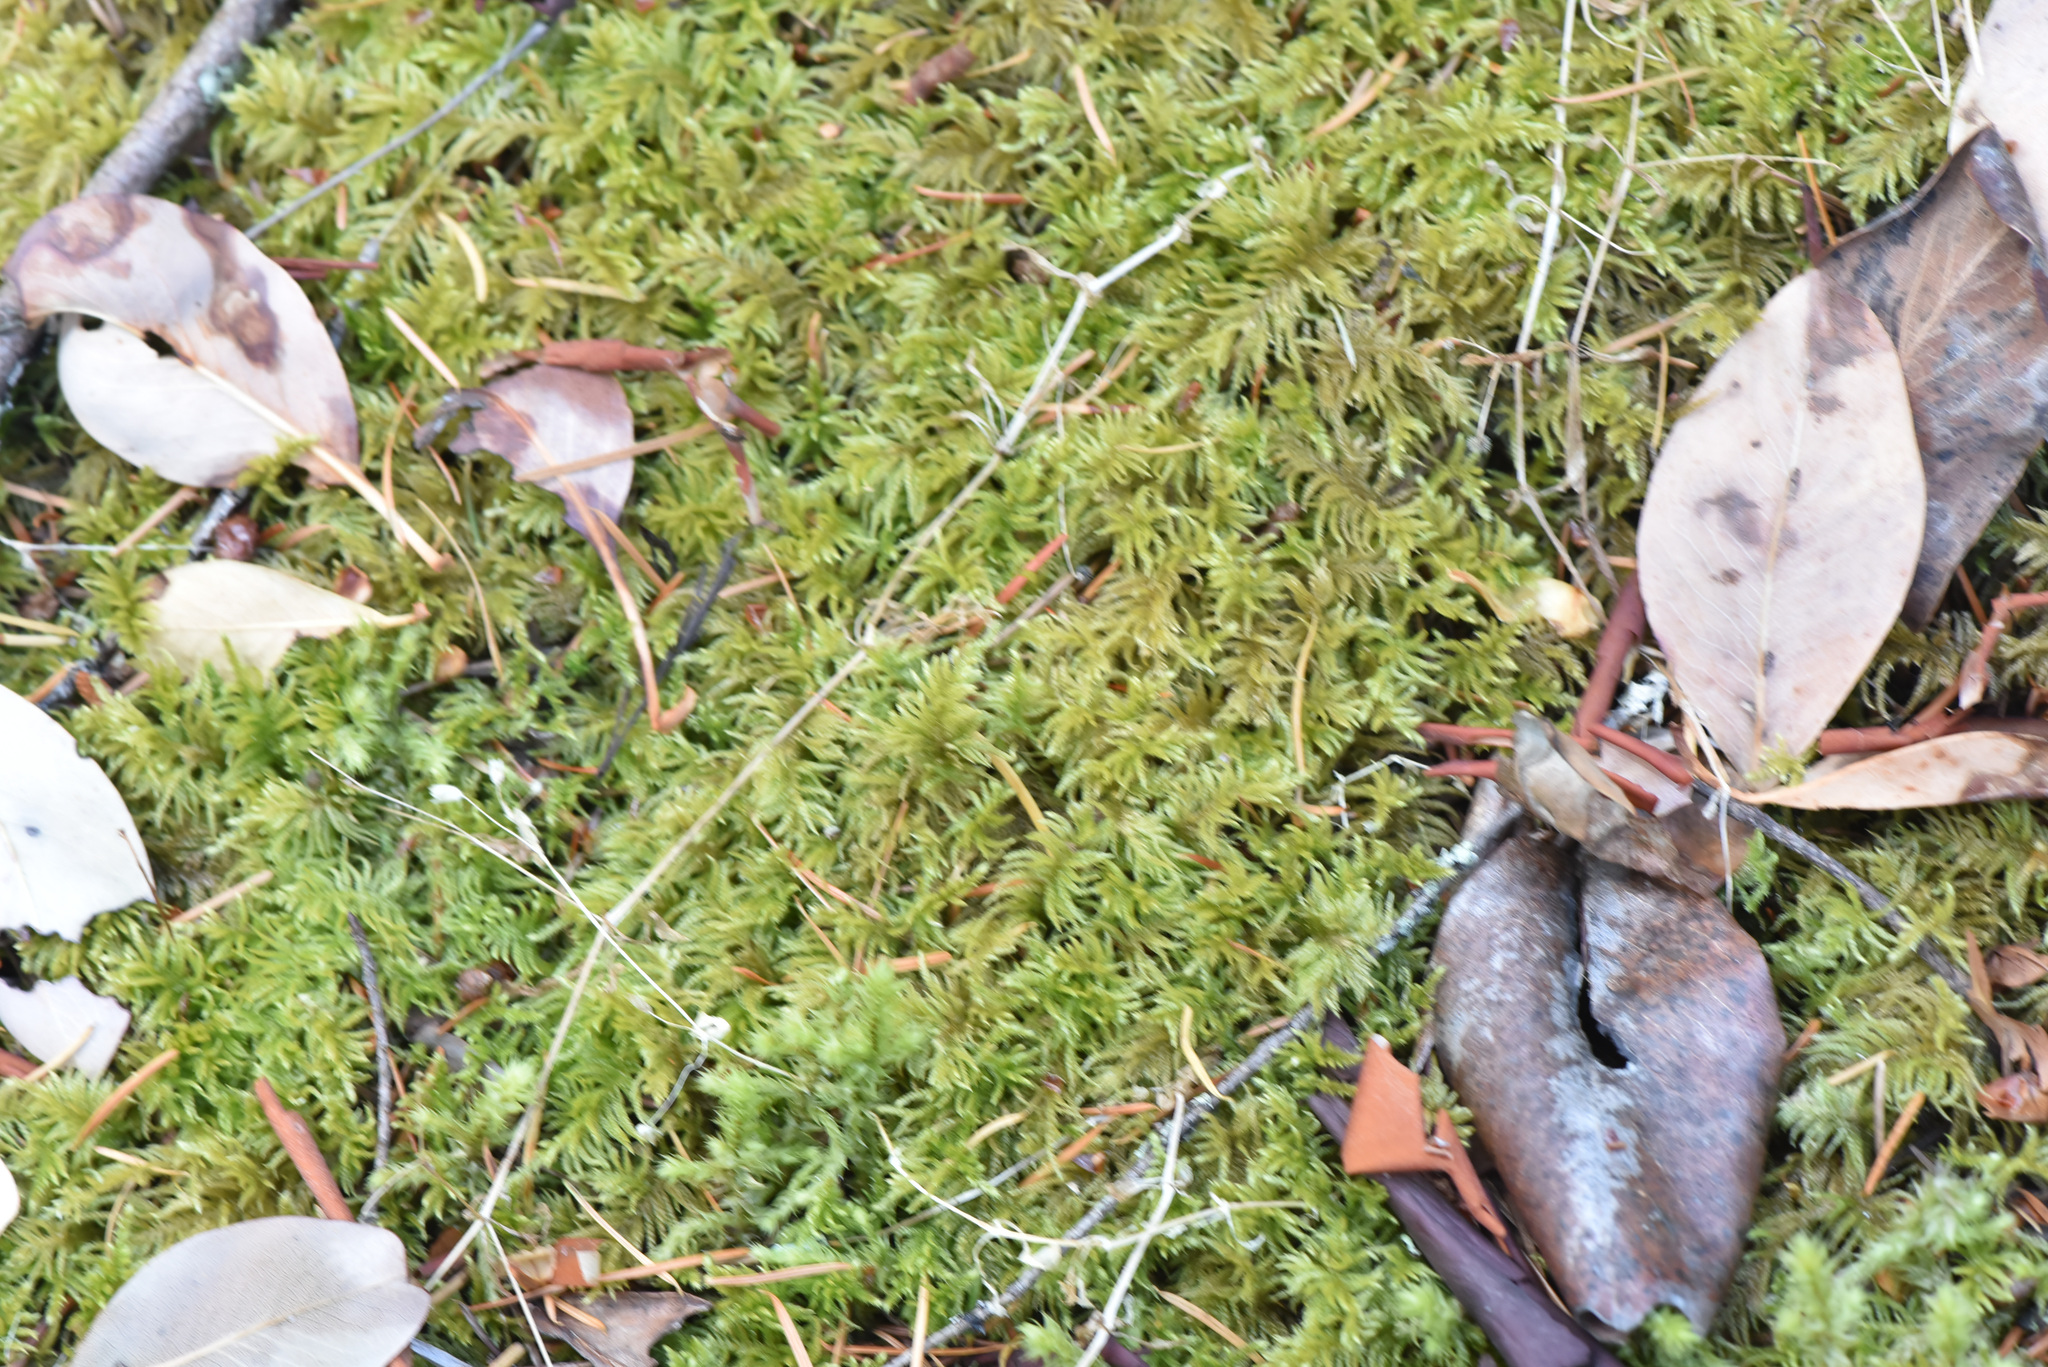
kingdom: Plantae
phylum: Bryophyta
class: Bryopsida
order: Hypnales
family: Brachytheciaceae
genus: Kindbergia
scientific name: Kindbergia oregana
